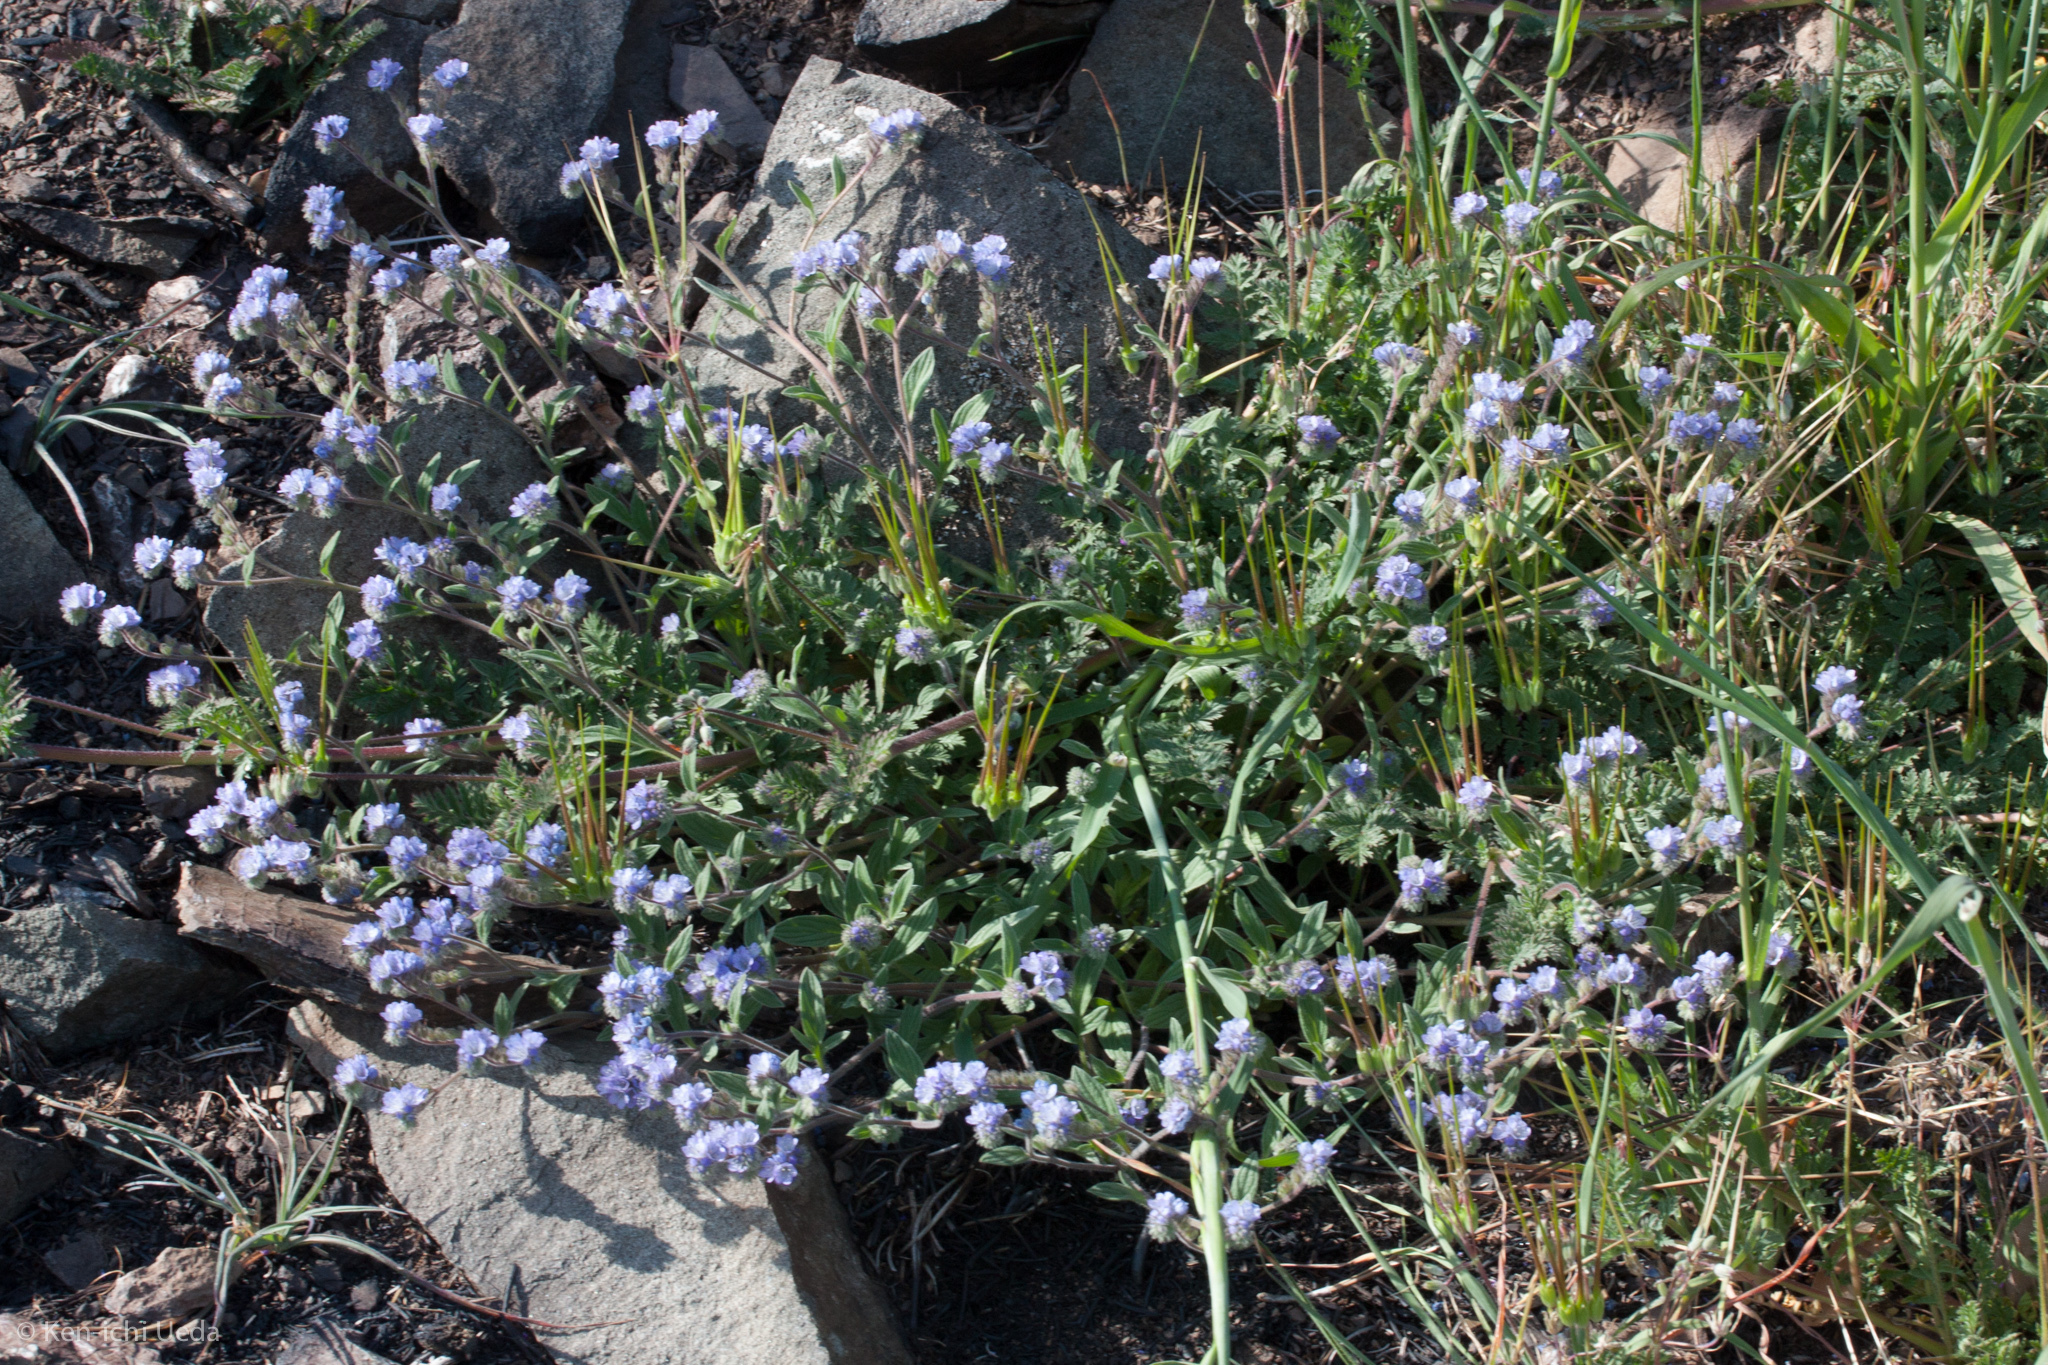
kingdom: Plantae
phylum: Tracheophyta
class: Magnoliopsida
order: Boraginales
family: Hydrophyllaceae
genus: Phacelia
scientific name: Phacelia breweri
